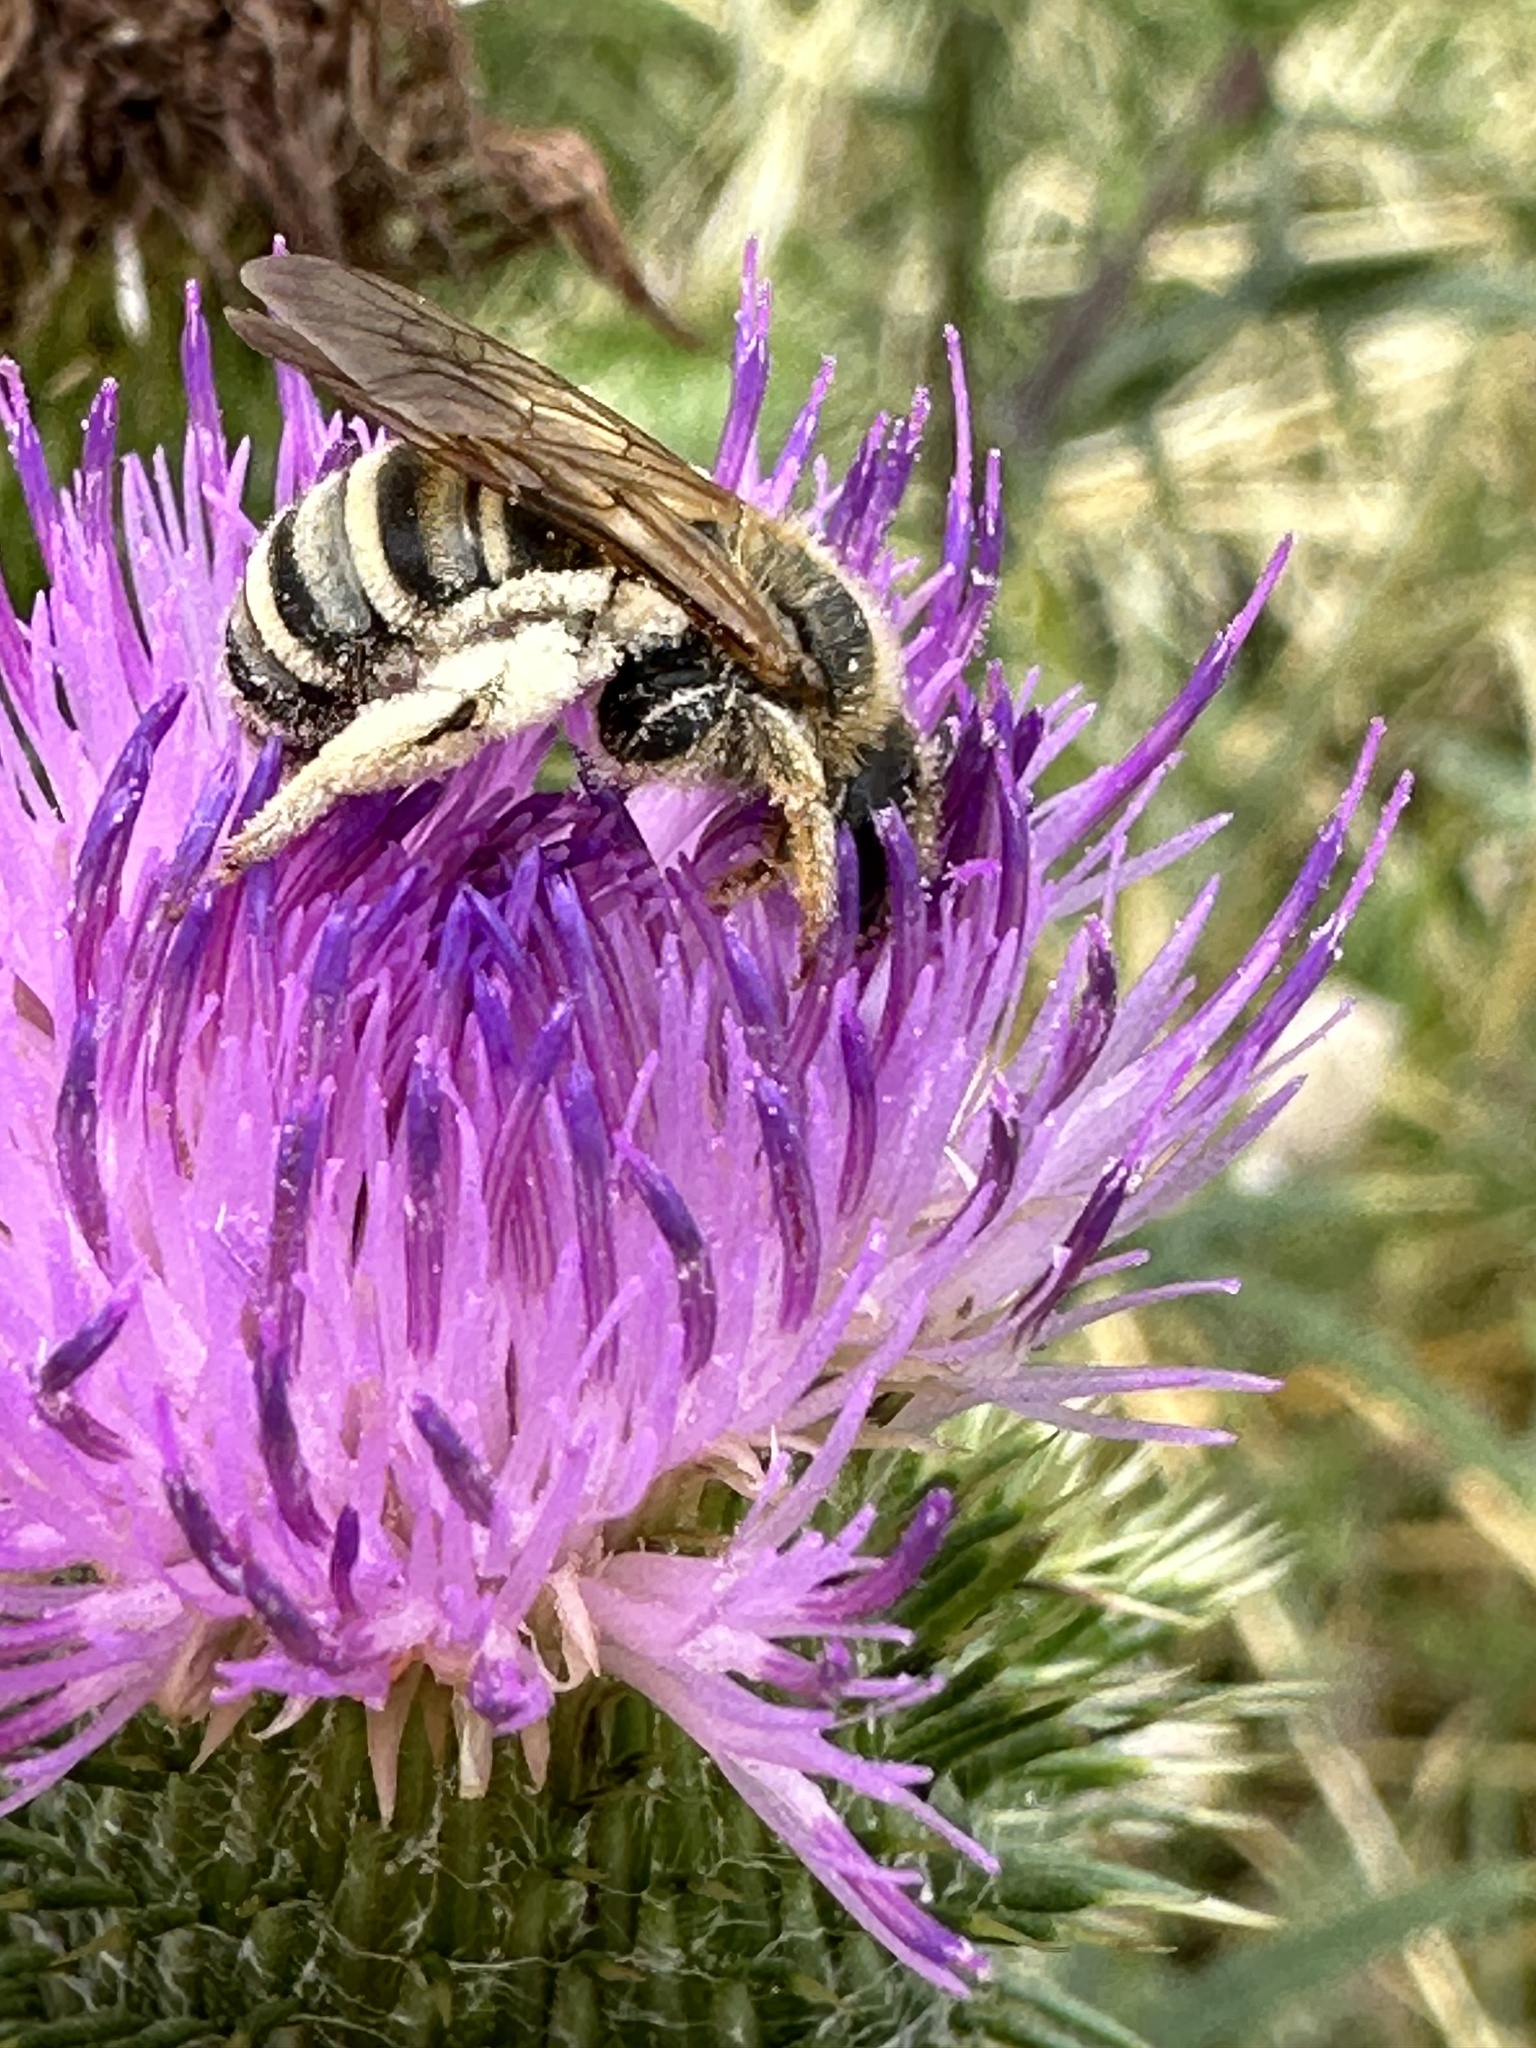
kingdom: Animalia
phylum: Arthropoda
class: Insecta
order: Hymenoptera
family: Halictidae
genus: Halictus
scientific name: Halictus scabiosae
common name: Great banded furrow bee
